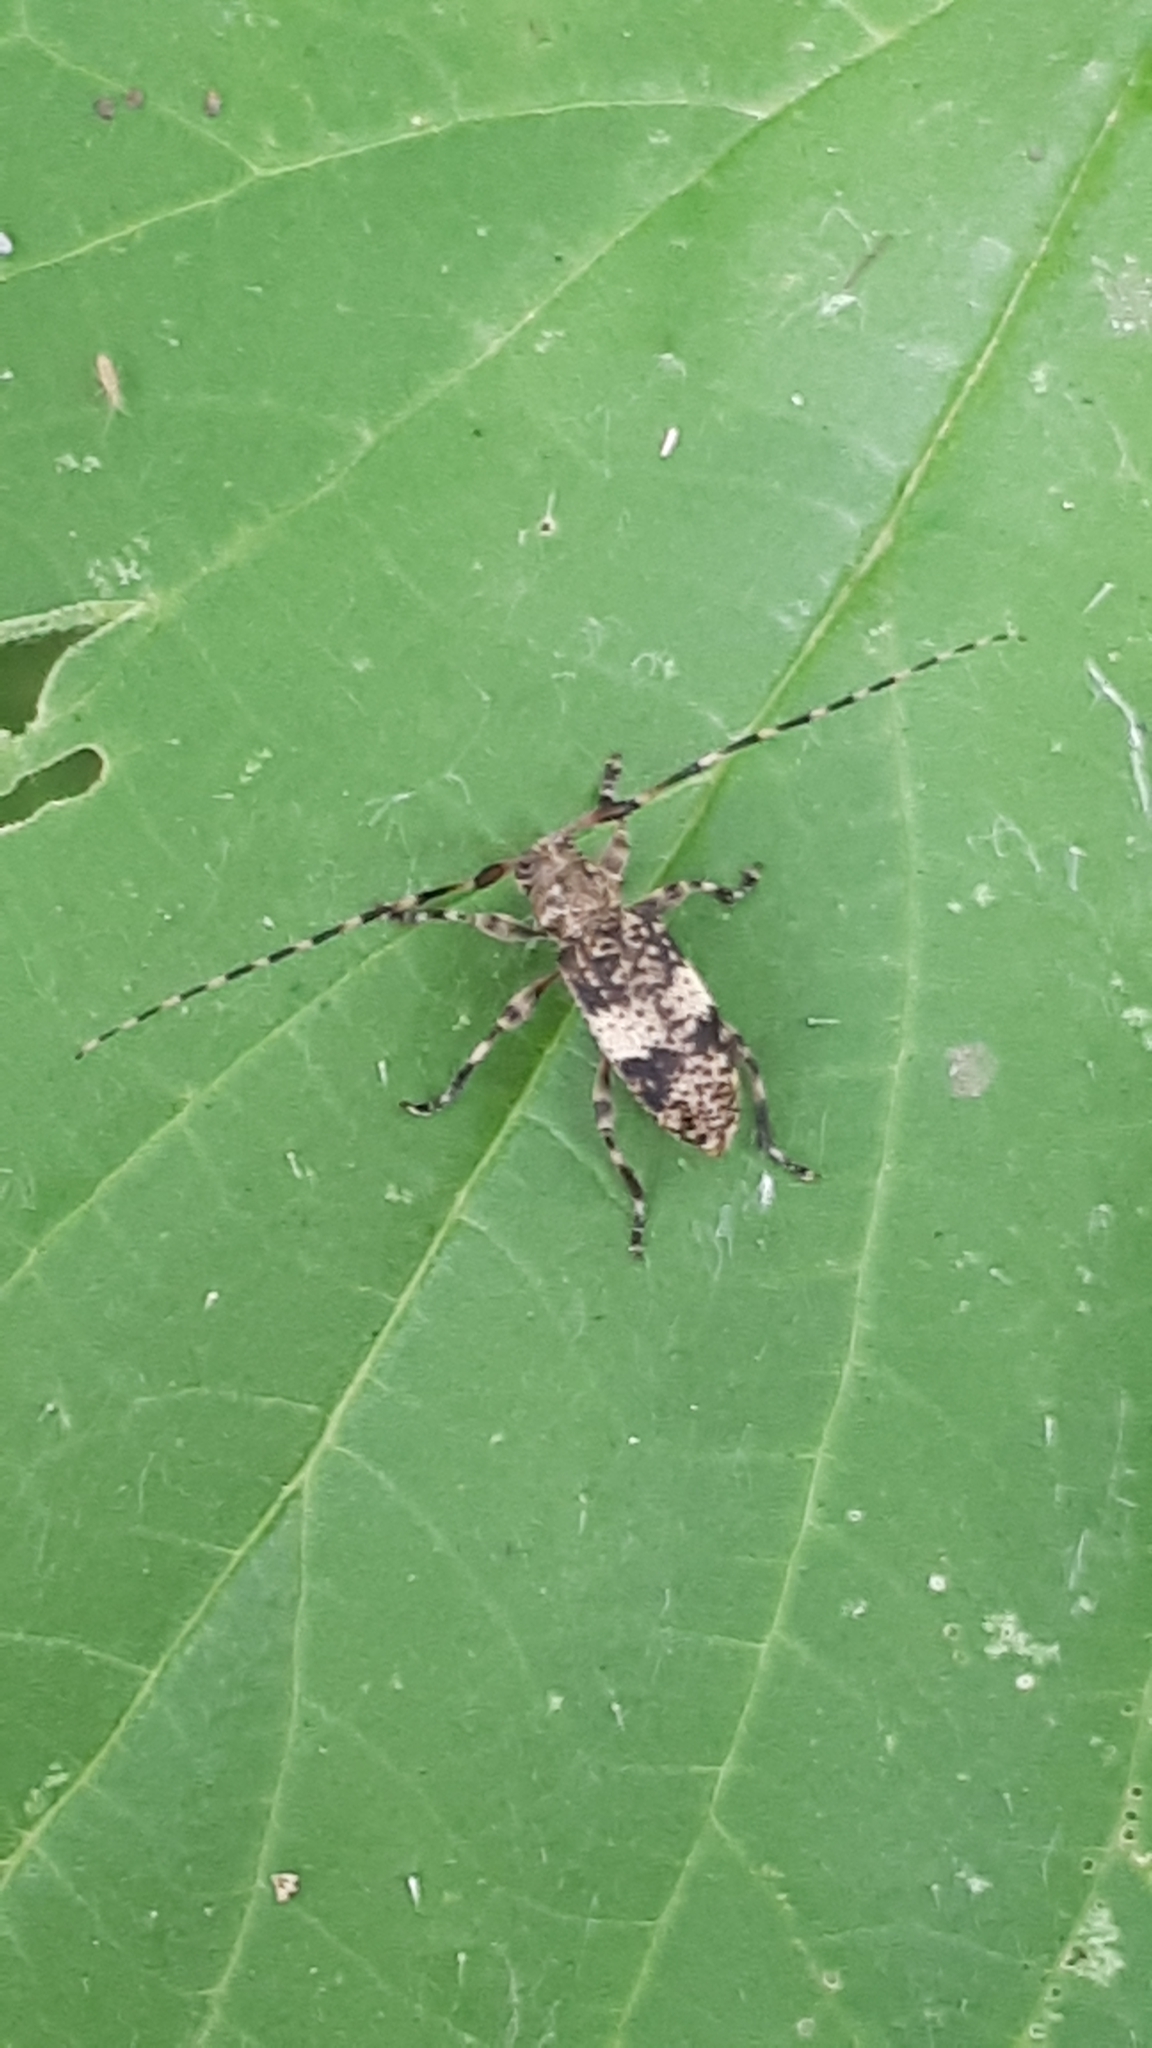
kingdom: Animalia
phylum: Arthropoda
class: Insecta
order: Coleoptera
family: Cerambycidae
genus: Leiopus
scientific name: Leiopus
